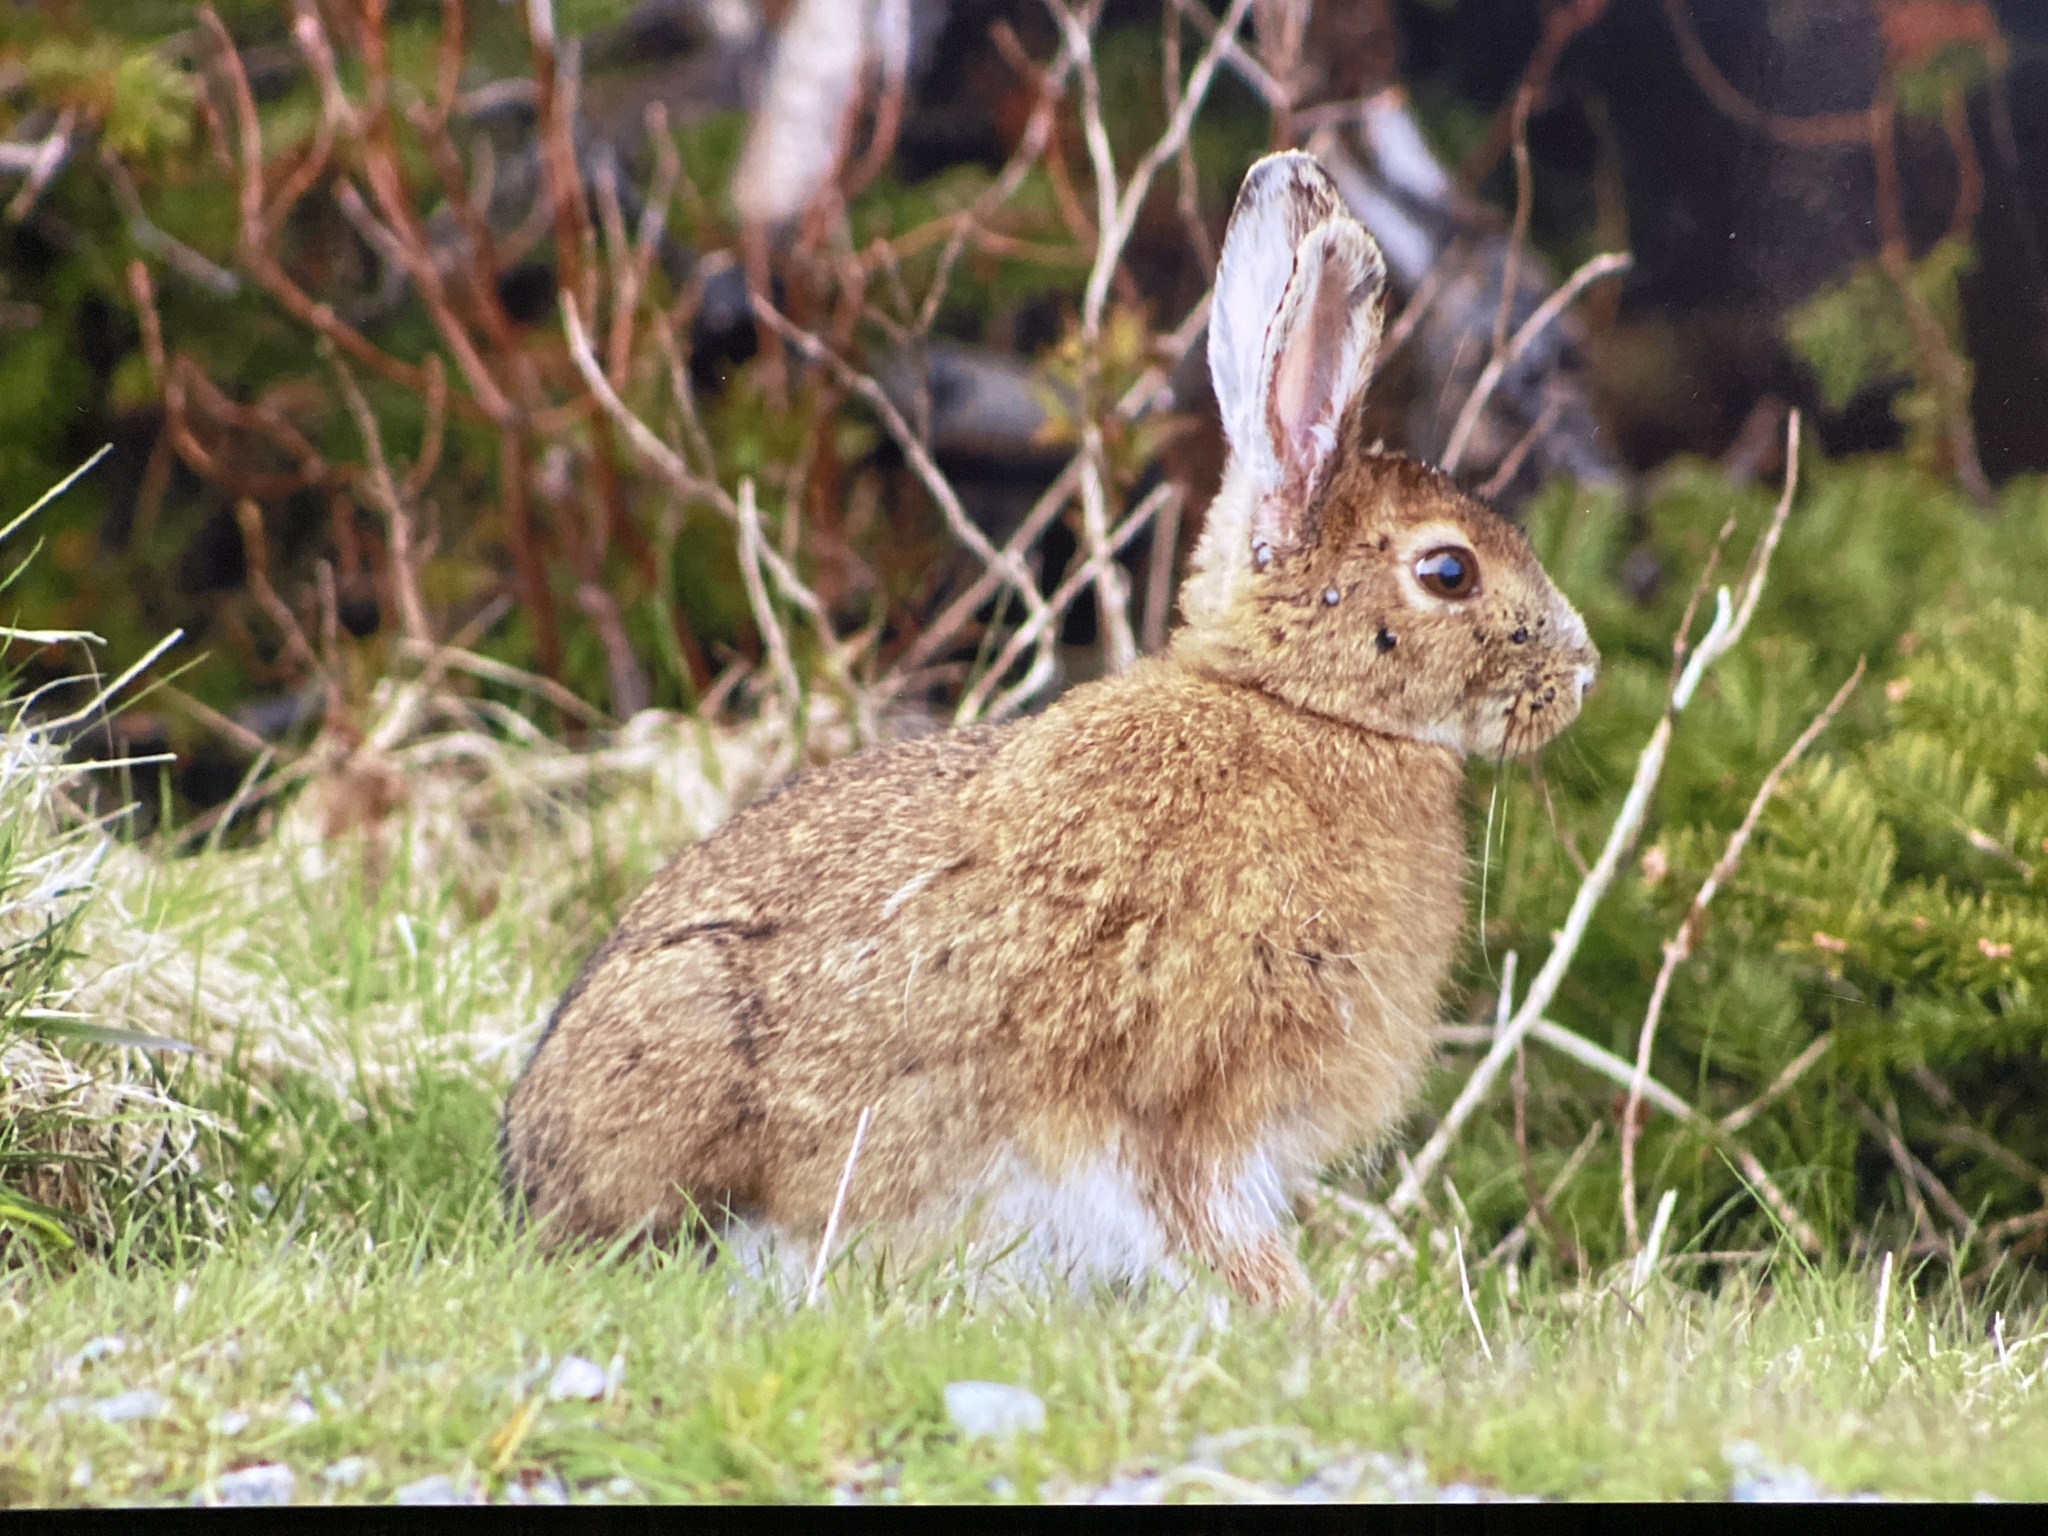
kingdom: Animalia
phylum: Chordata
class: Mammalia
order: Lagomorpha
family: Leporidae
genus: Lepus
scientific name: Lepus americanus
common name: Snowshoe hare
